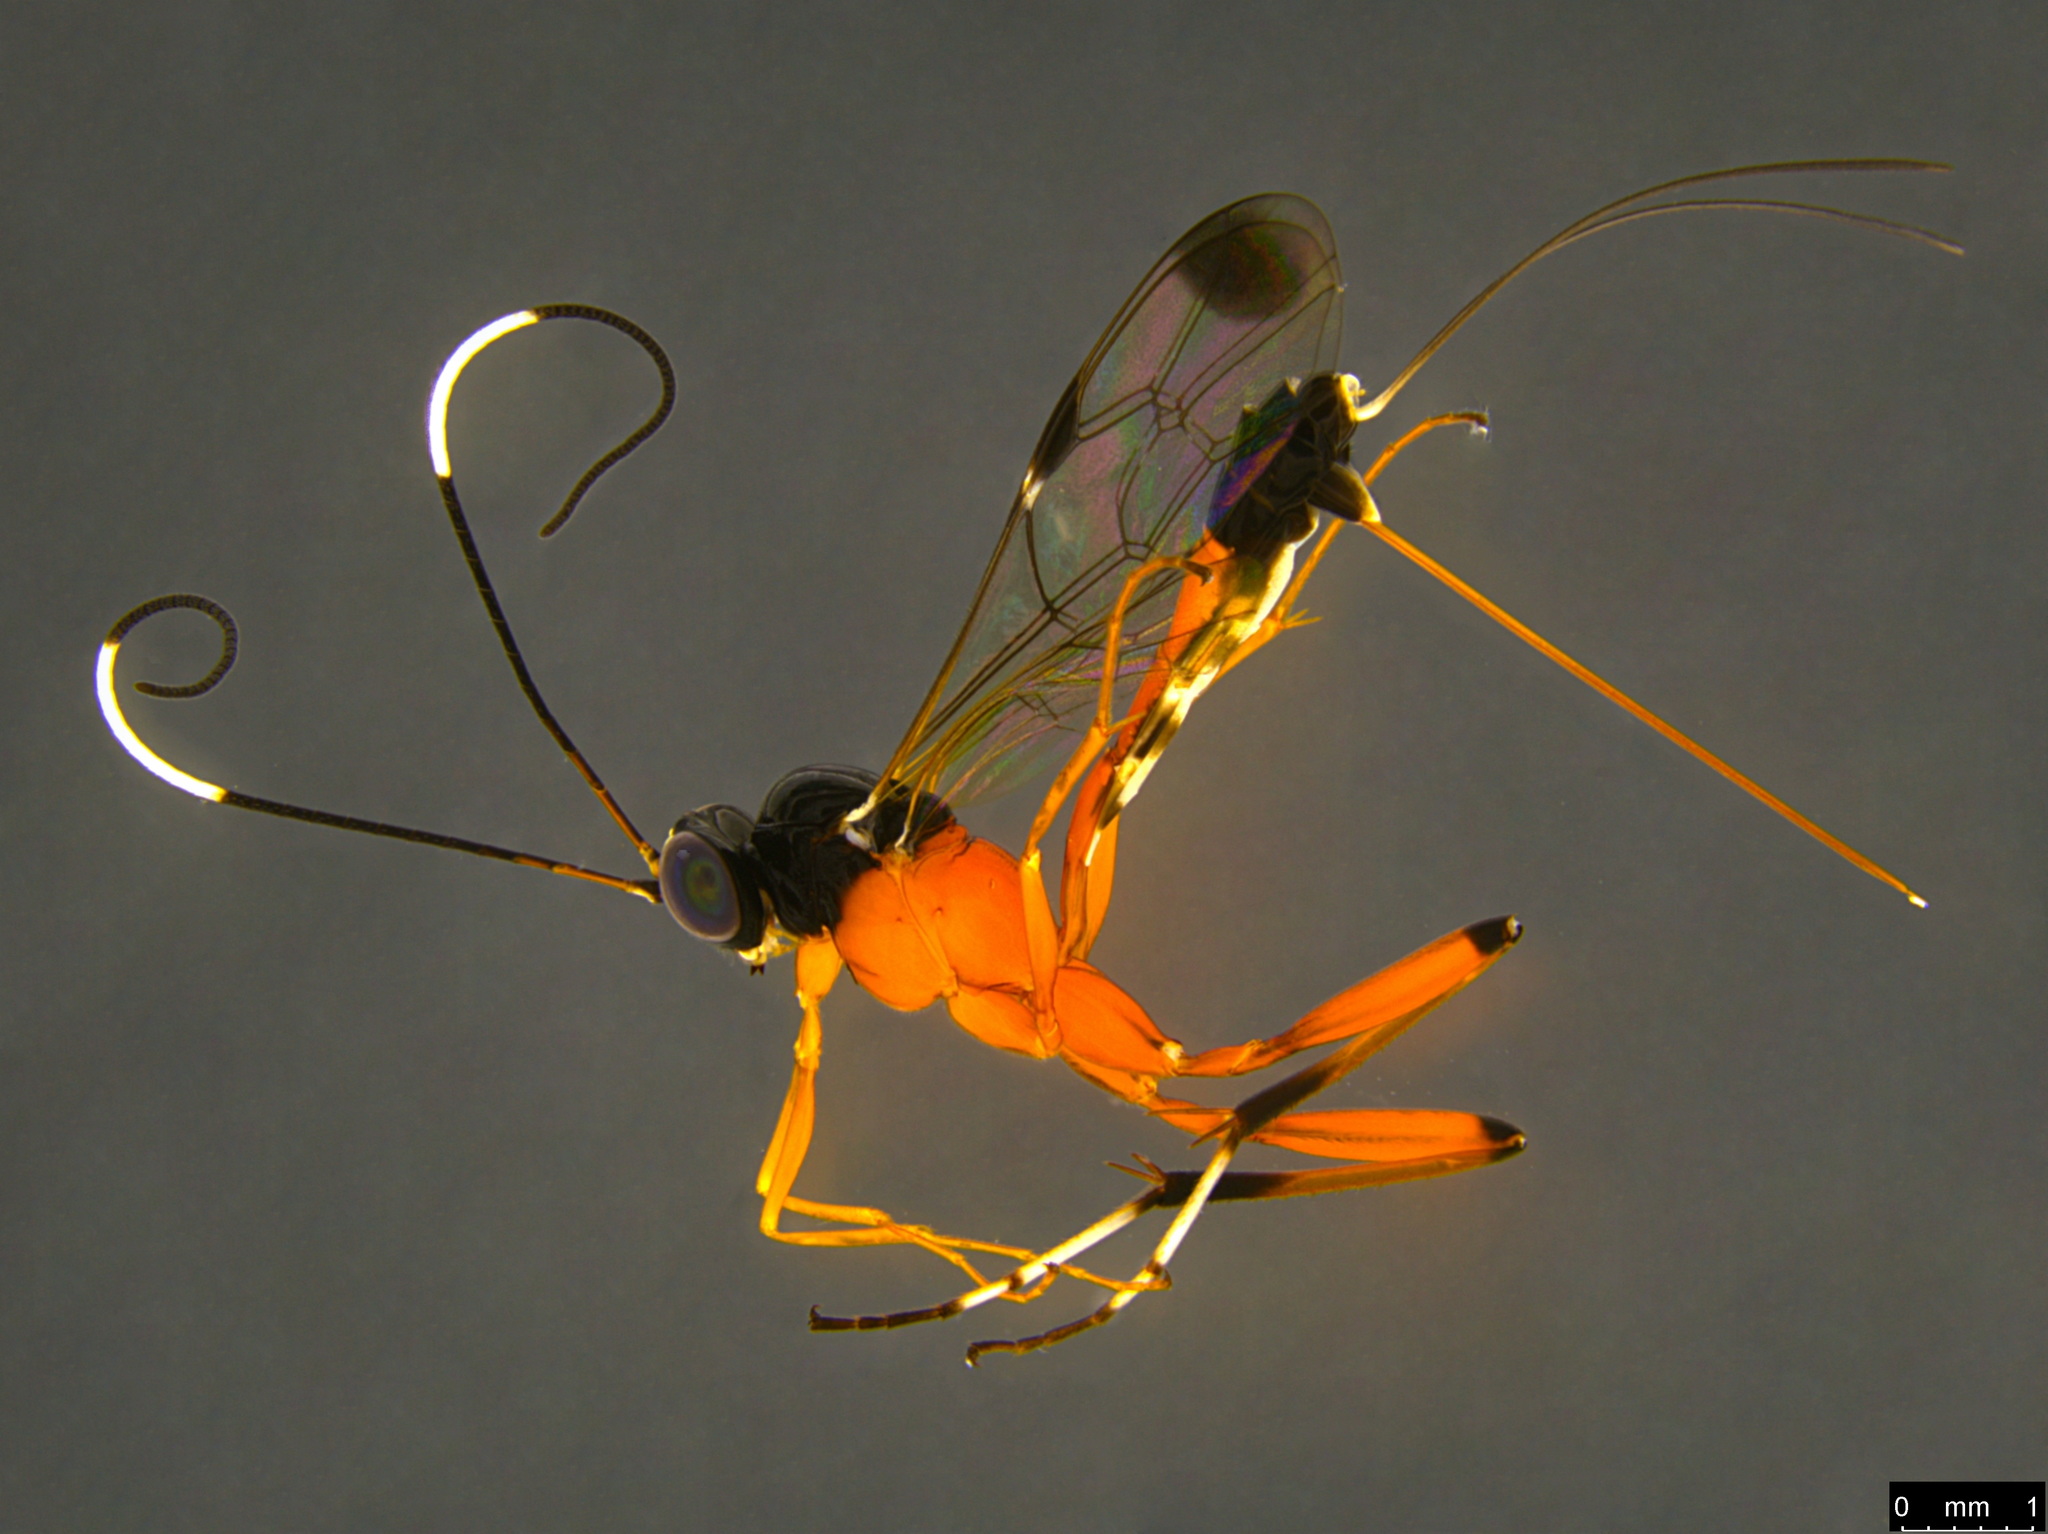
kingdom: Animalia
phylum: Arthropoda
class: Insecta
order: Hymenoptera
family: Ichneumonidae
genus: Leptobatopsis
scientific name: Leptobatopsis mesominiata
